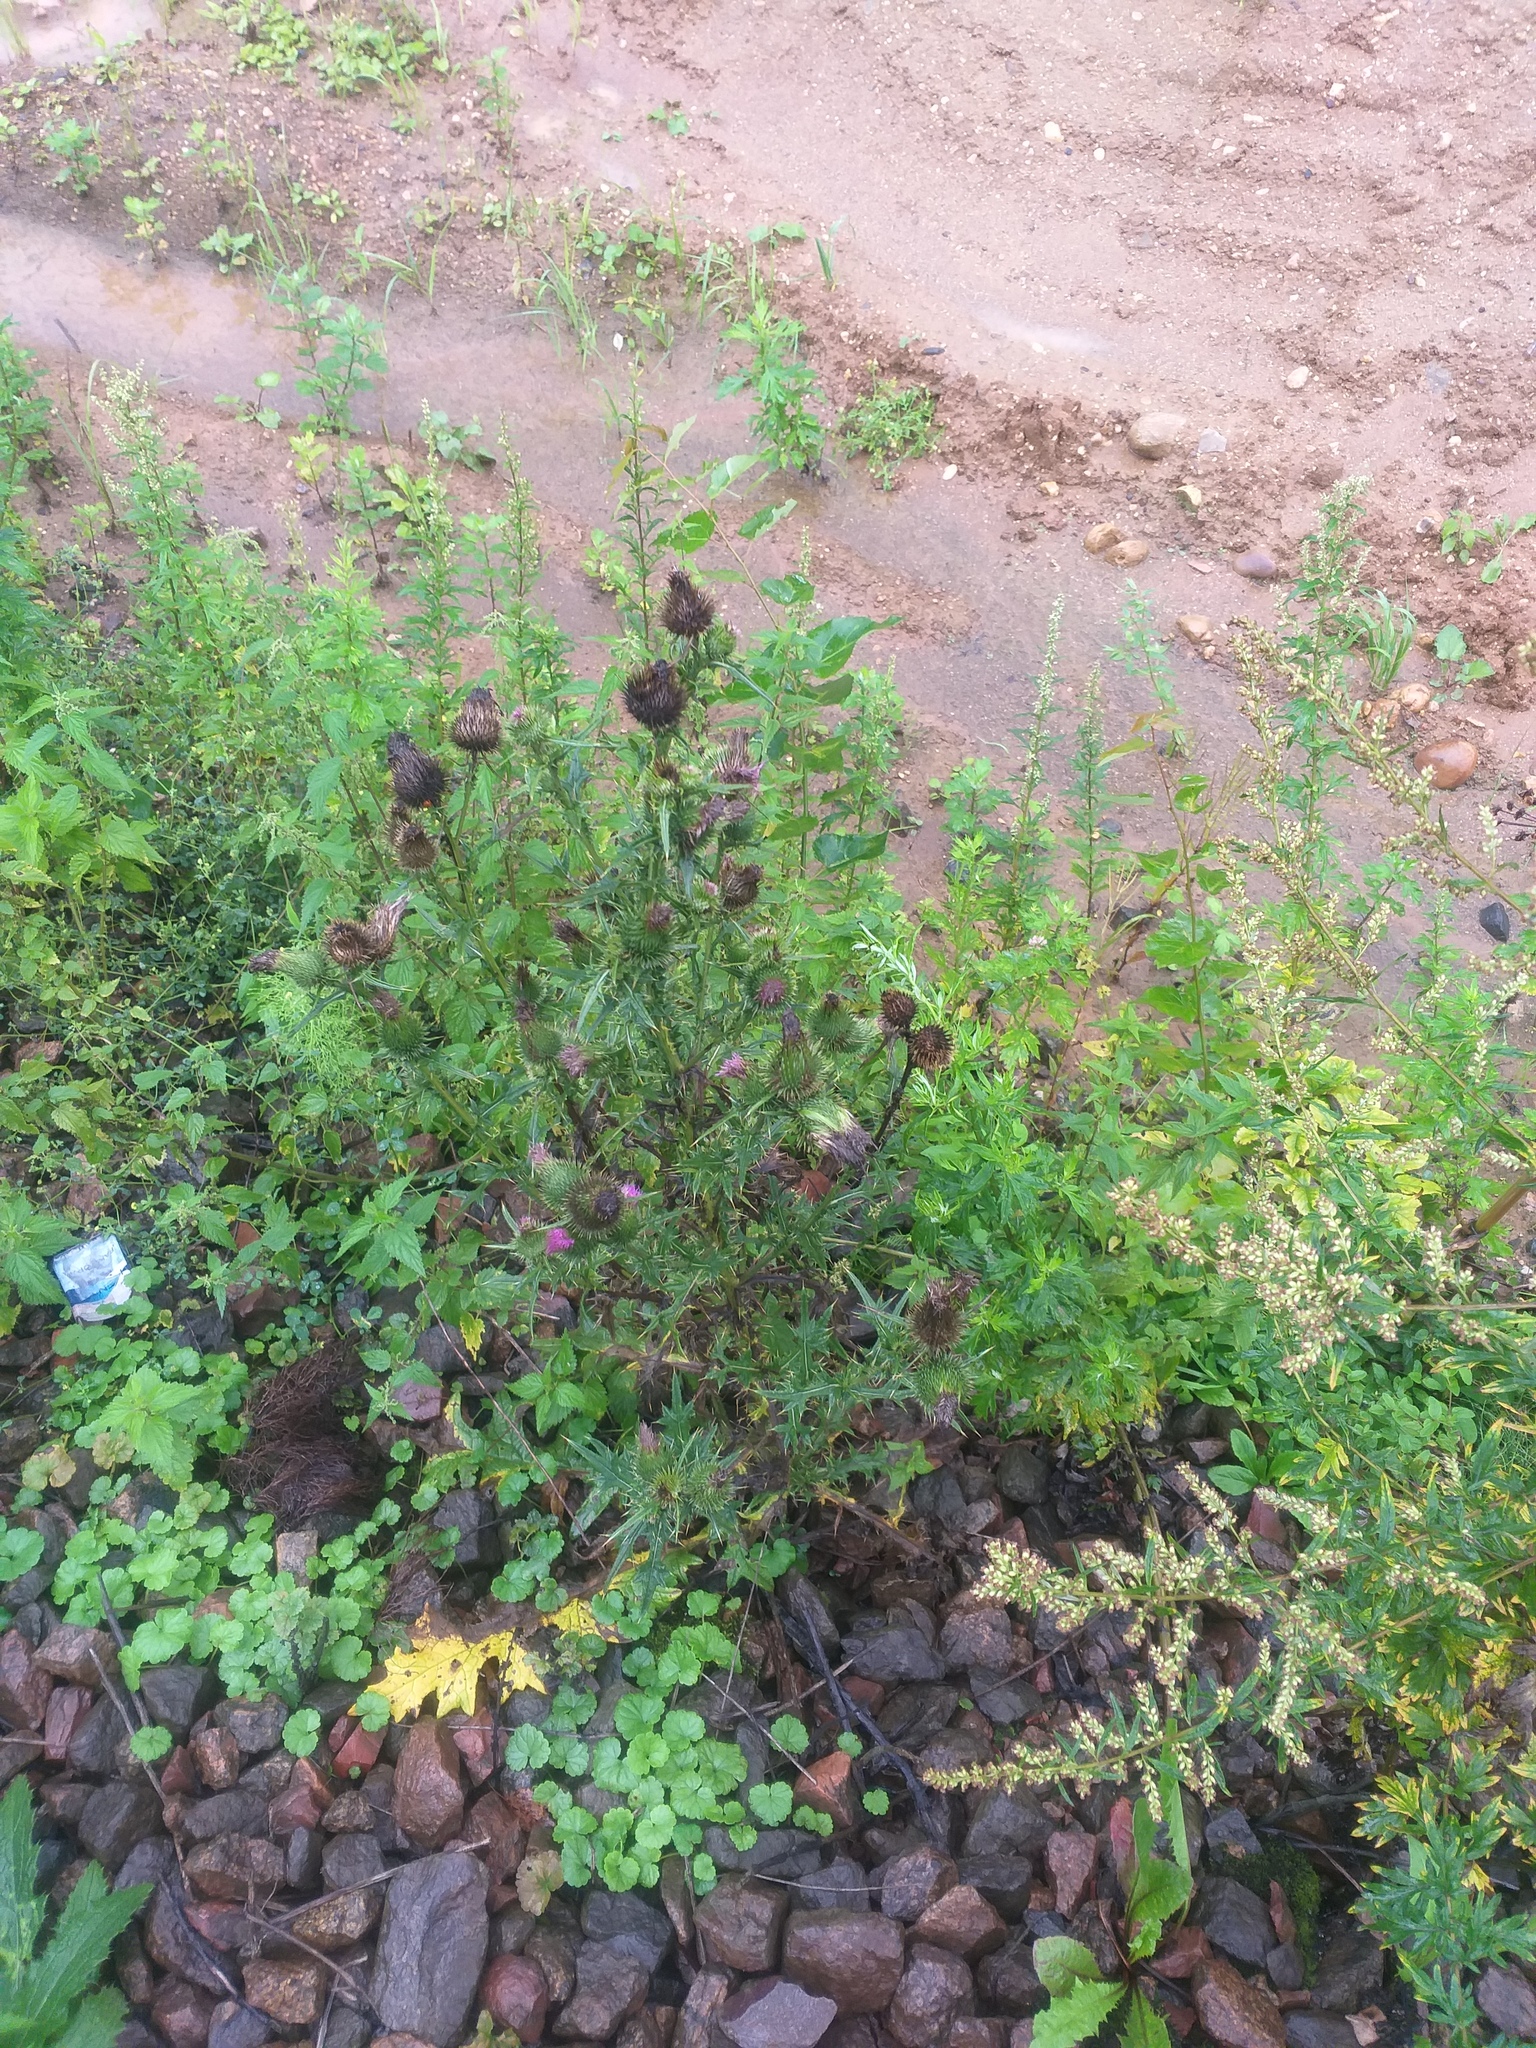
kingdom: Plantae
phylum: Tracheophyta
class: Magnoliopsida
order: Asterales
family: Asteraceae
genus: Cirsium
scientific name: Cirsium vulgare
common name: Bull thistle
